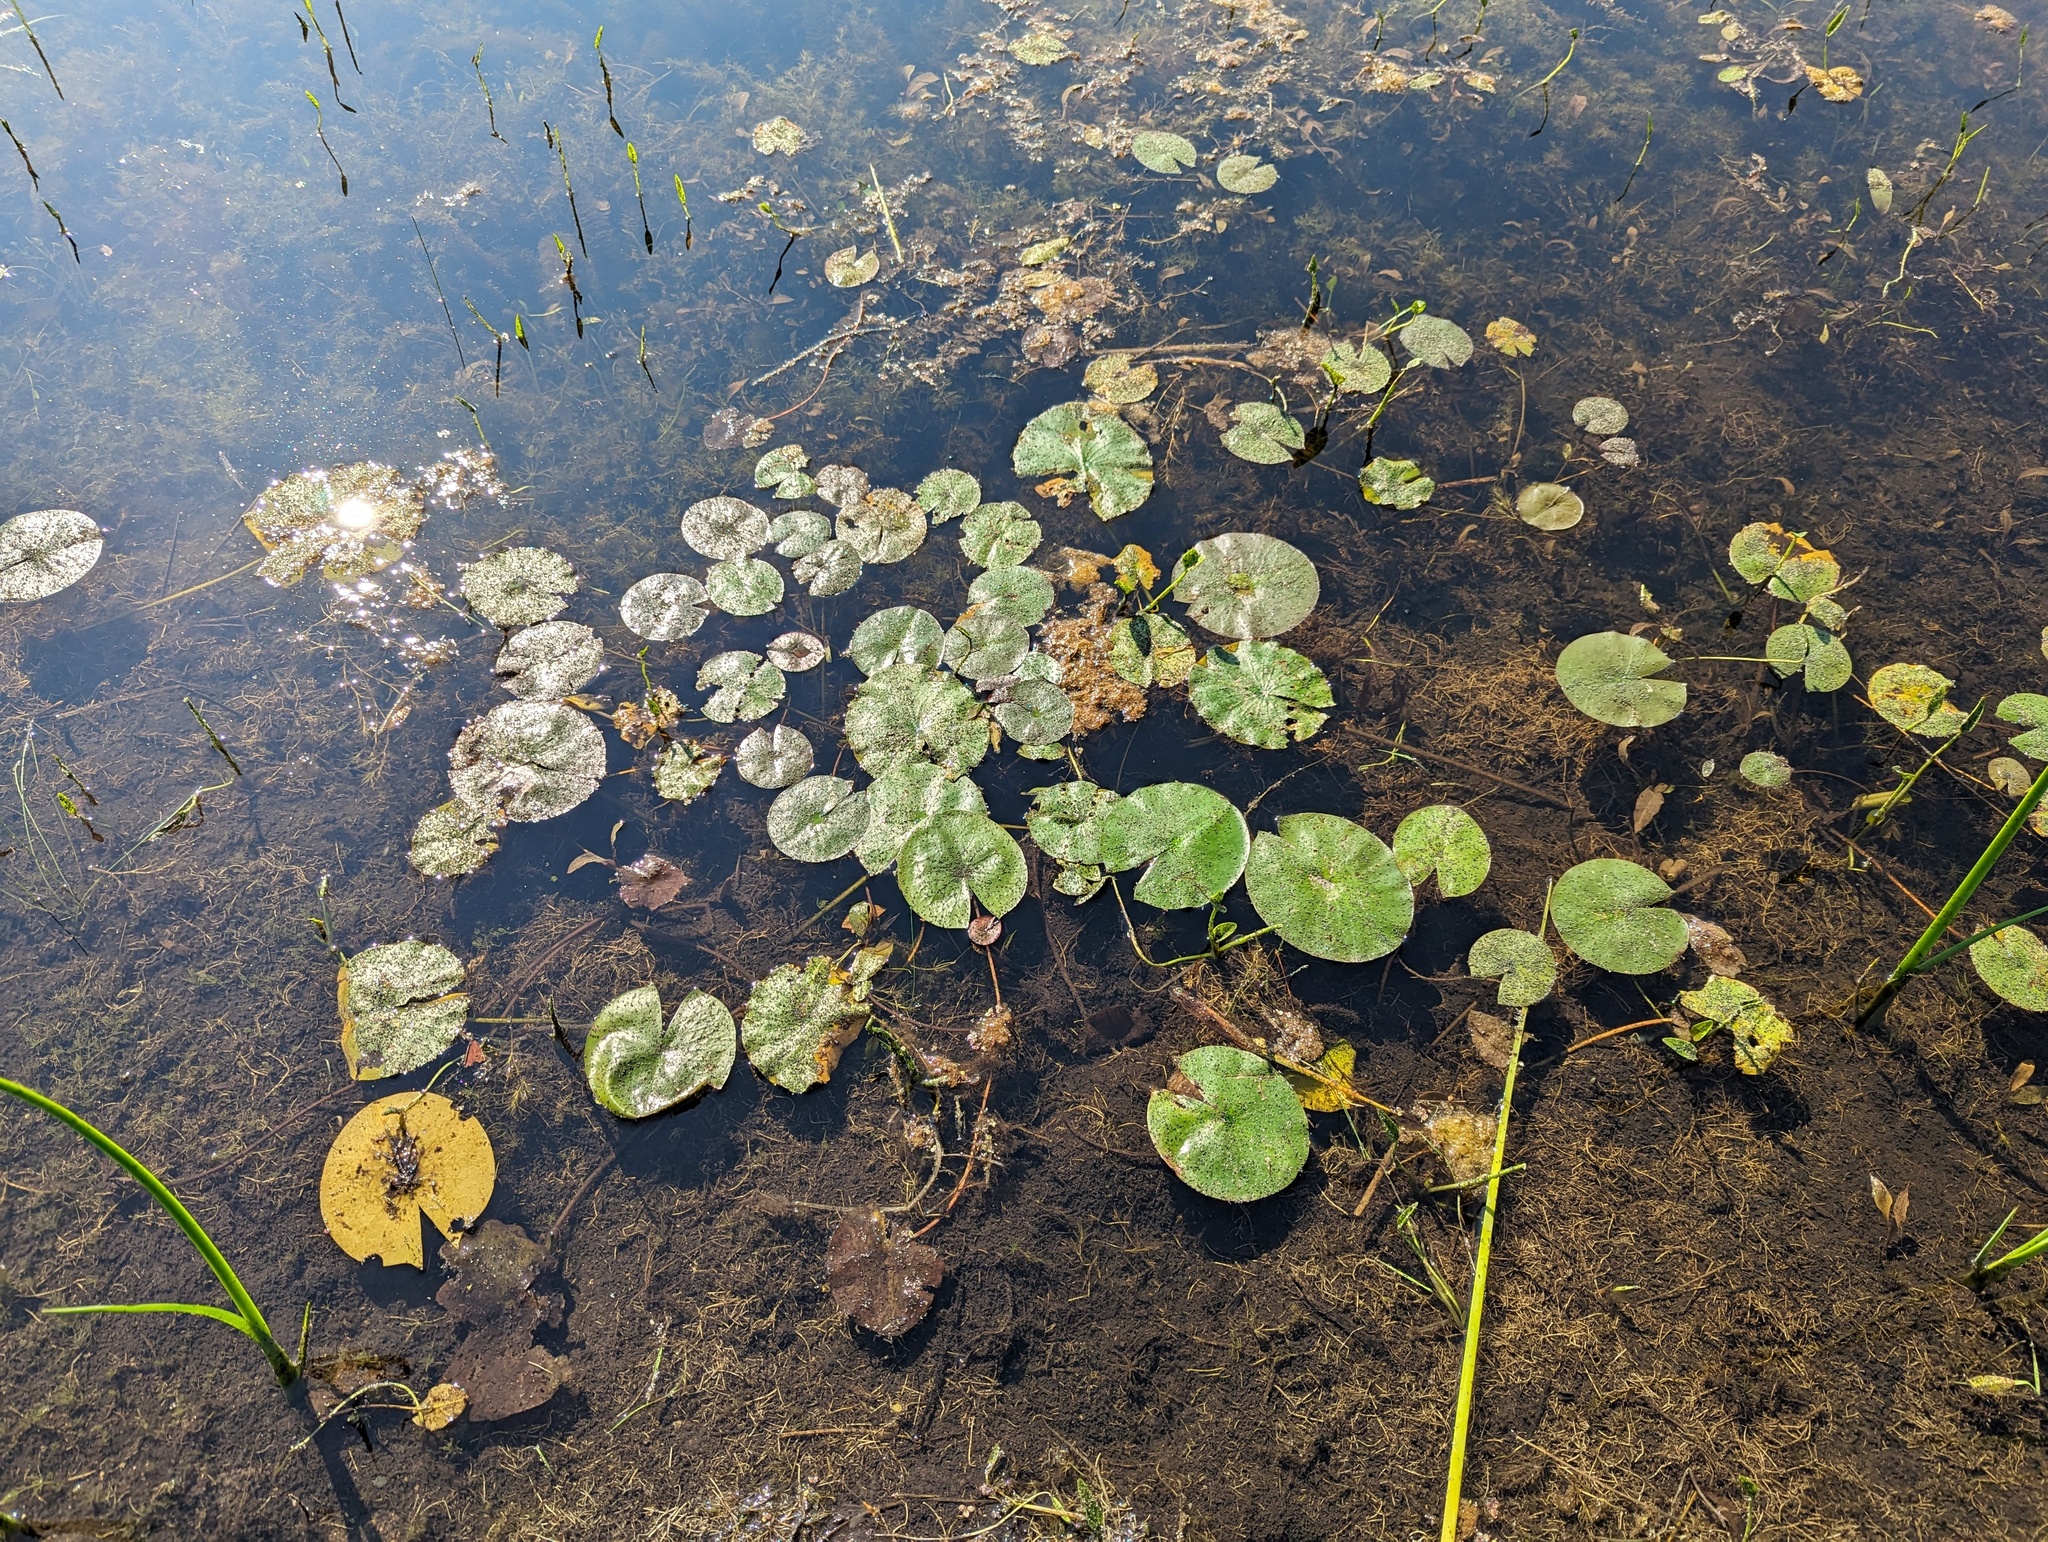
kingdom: Plantae
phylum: Tracheophyta
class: Magnoliopsida
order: Nymphaeales
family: Nymphaeaceae
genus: Nymphaea
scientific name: Nymphaea odorata
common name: Fragrant water-lily
